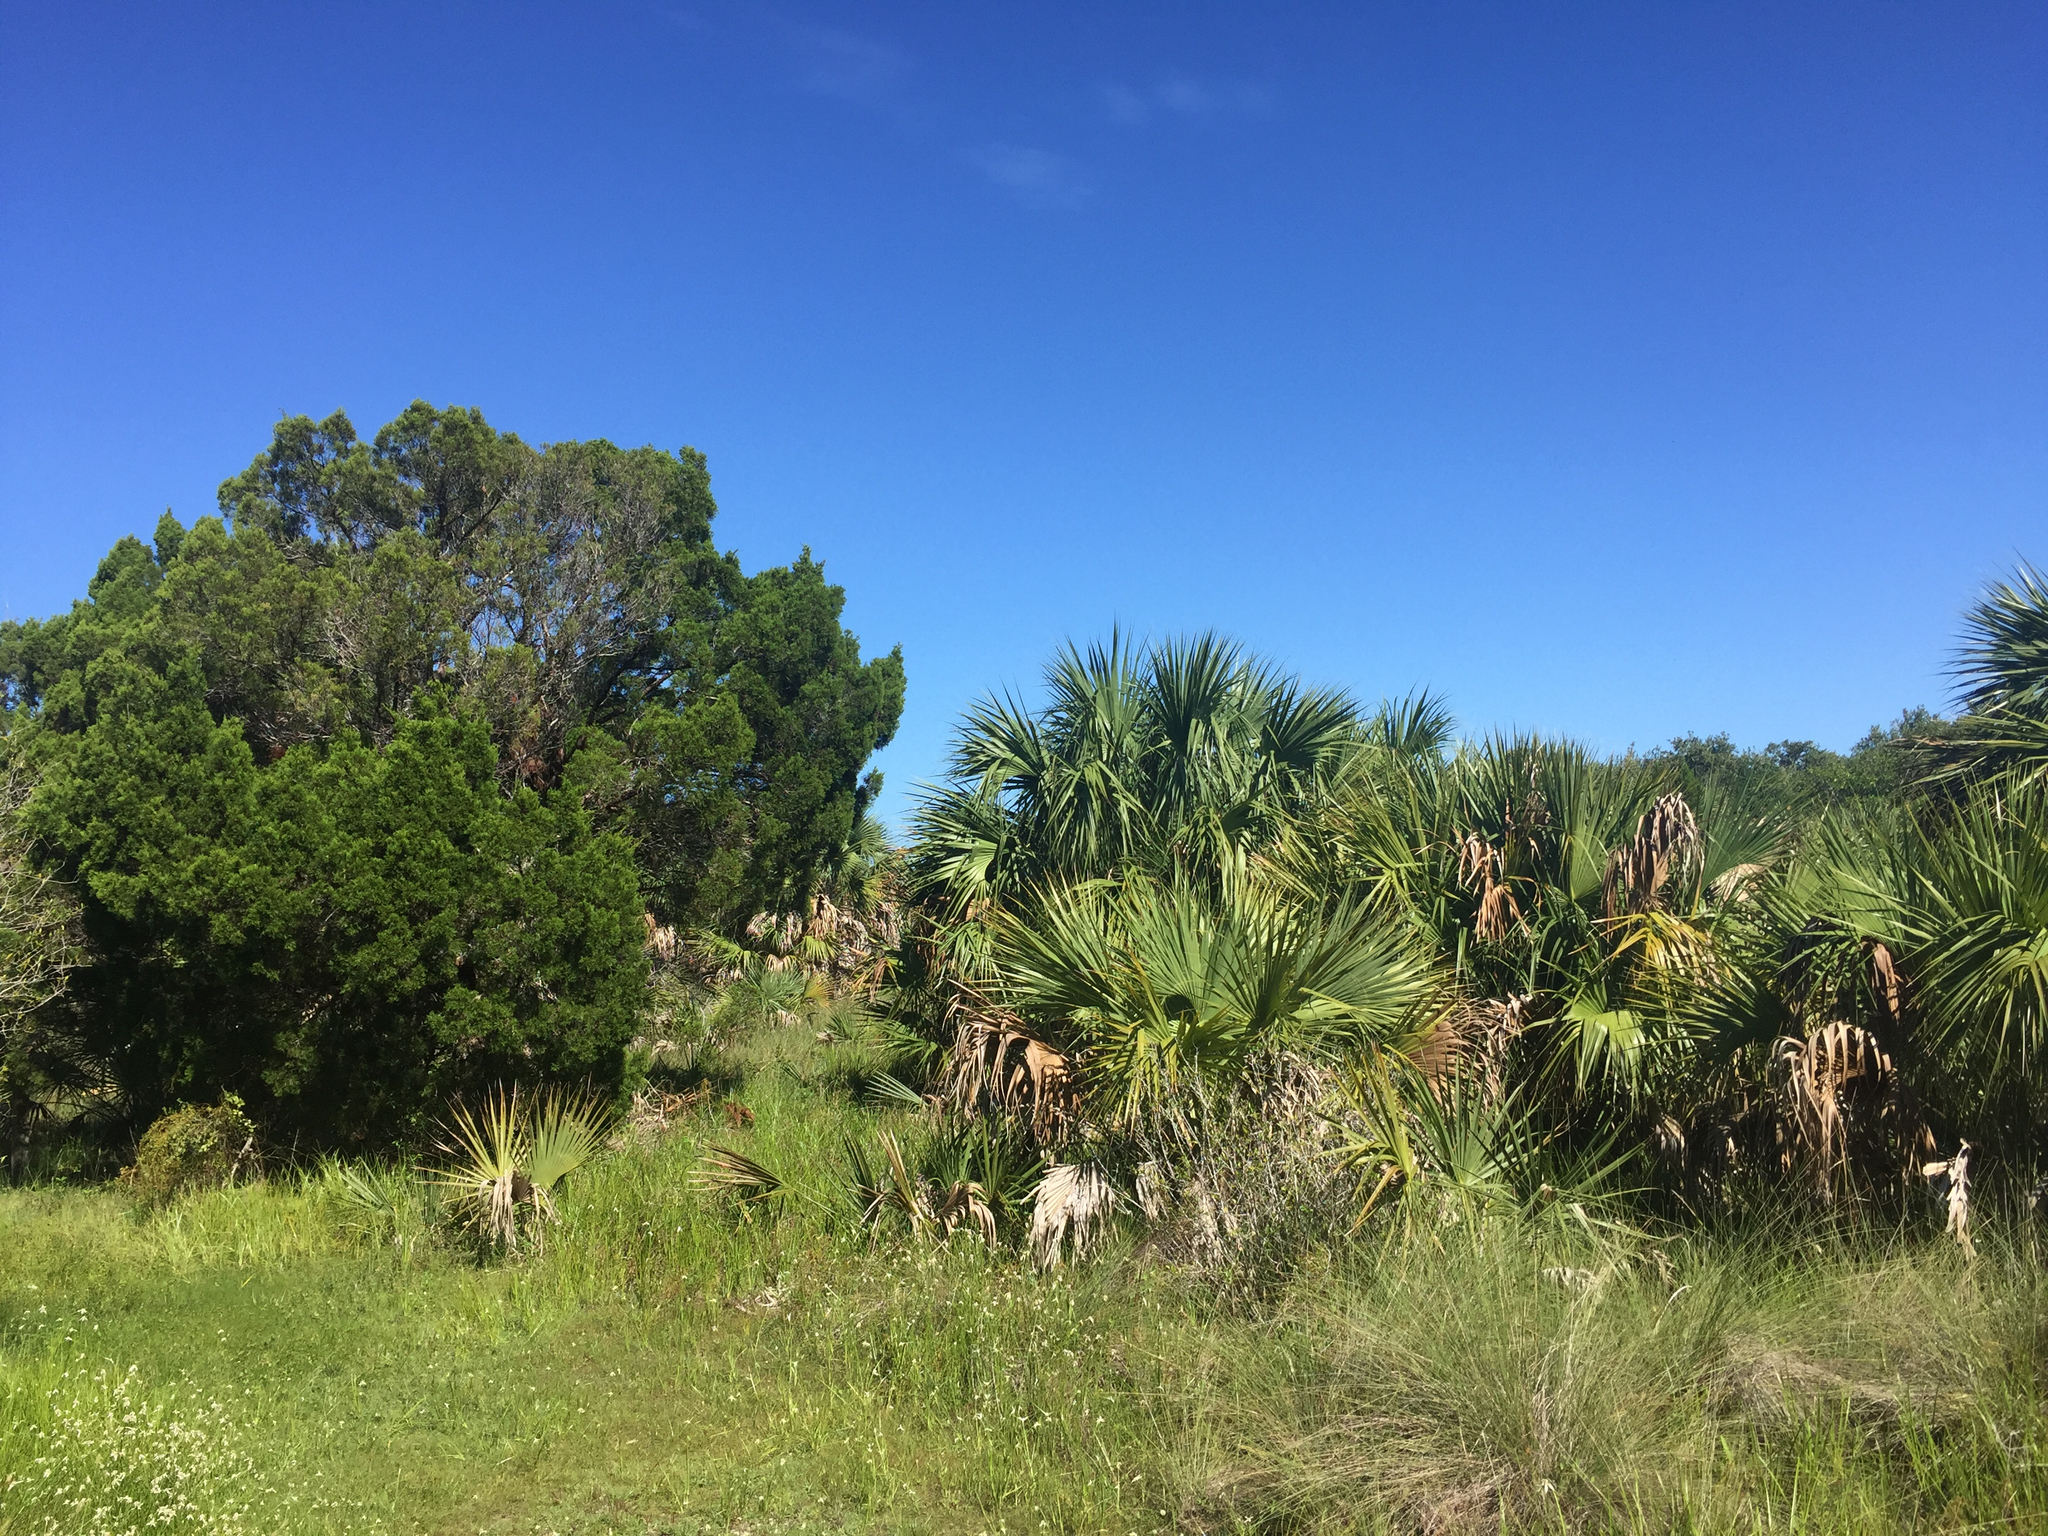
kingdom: Plantae
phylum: Tracheophyta
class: Pinopsida
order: Pinales
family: Cupressaceae
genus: Juniperus
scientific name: Juniperus virginiana
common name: Red juniper
